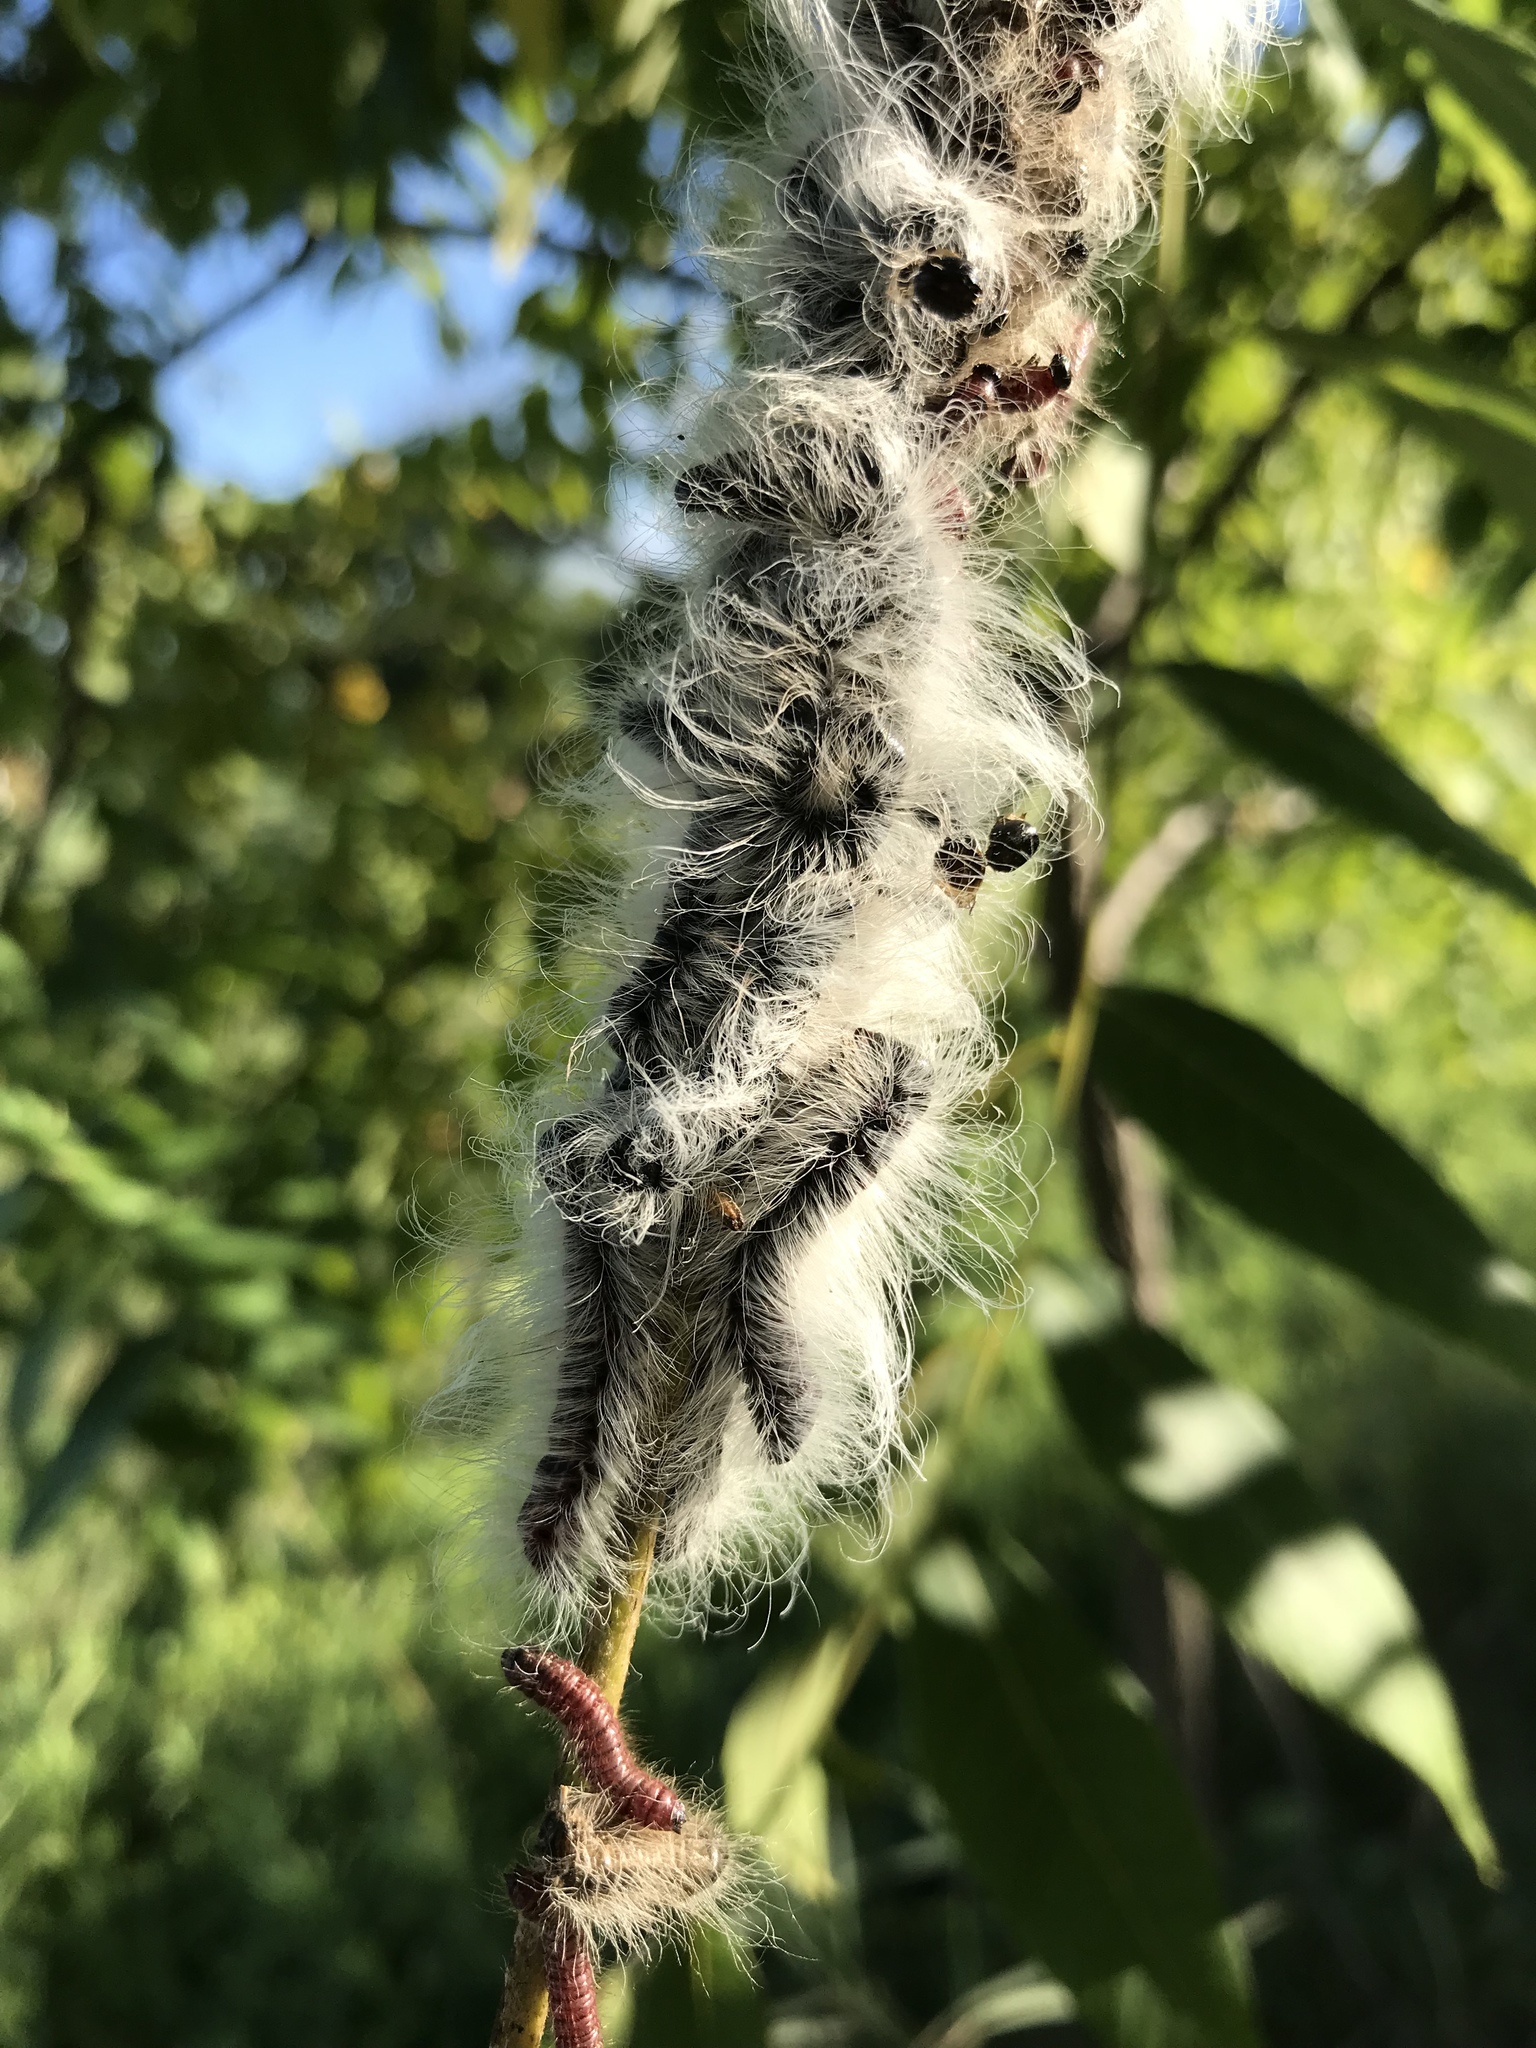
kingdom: Animalia
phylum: Arthropoda
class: Insecta
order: Lepidoptera
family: Notodontidae
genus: Datana
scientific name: Datana integerrima
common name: Walnut caterpillar
